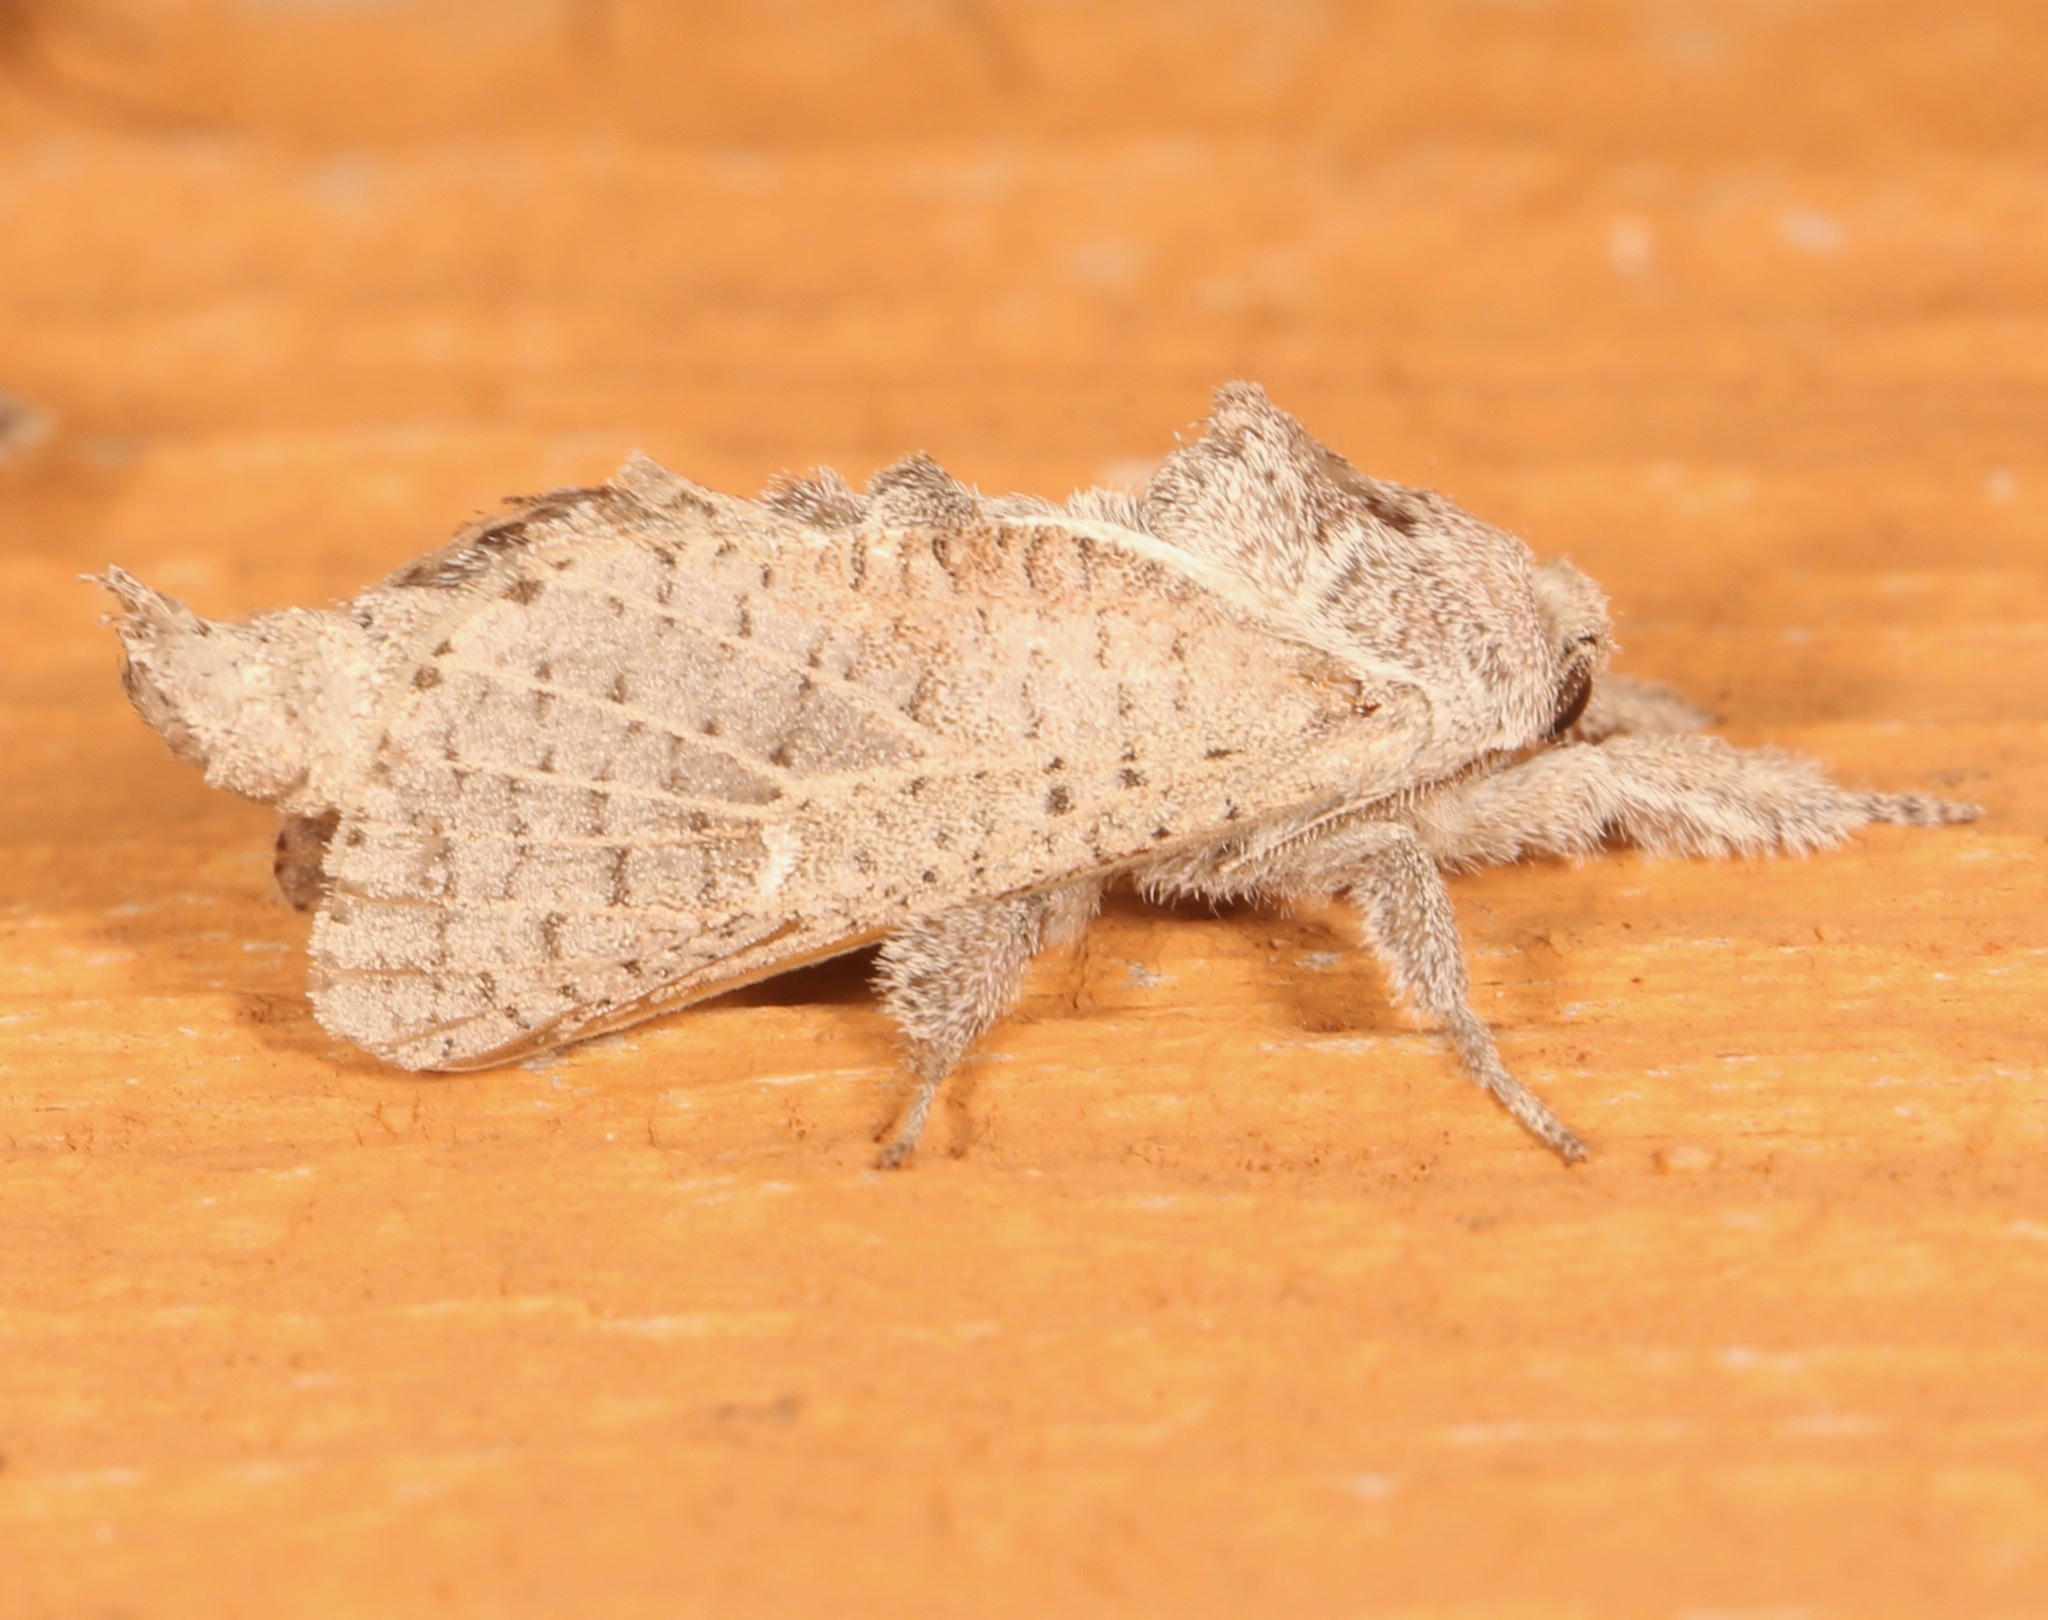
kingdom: Animalia
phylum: Arthropoda
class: Insecta
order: Lepidoptera
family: Cossidae
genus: Givira
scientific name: Givira anna
